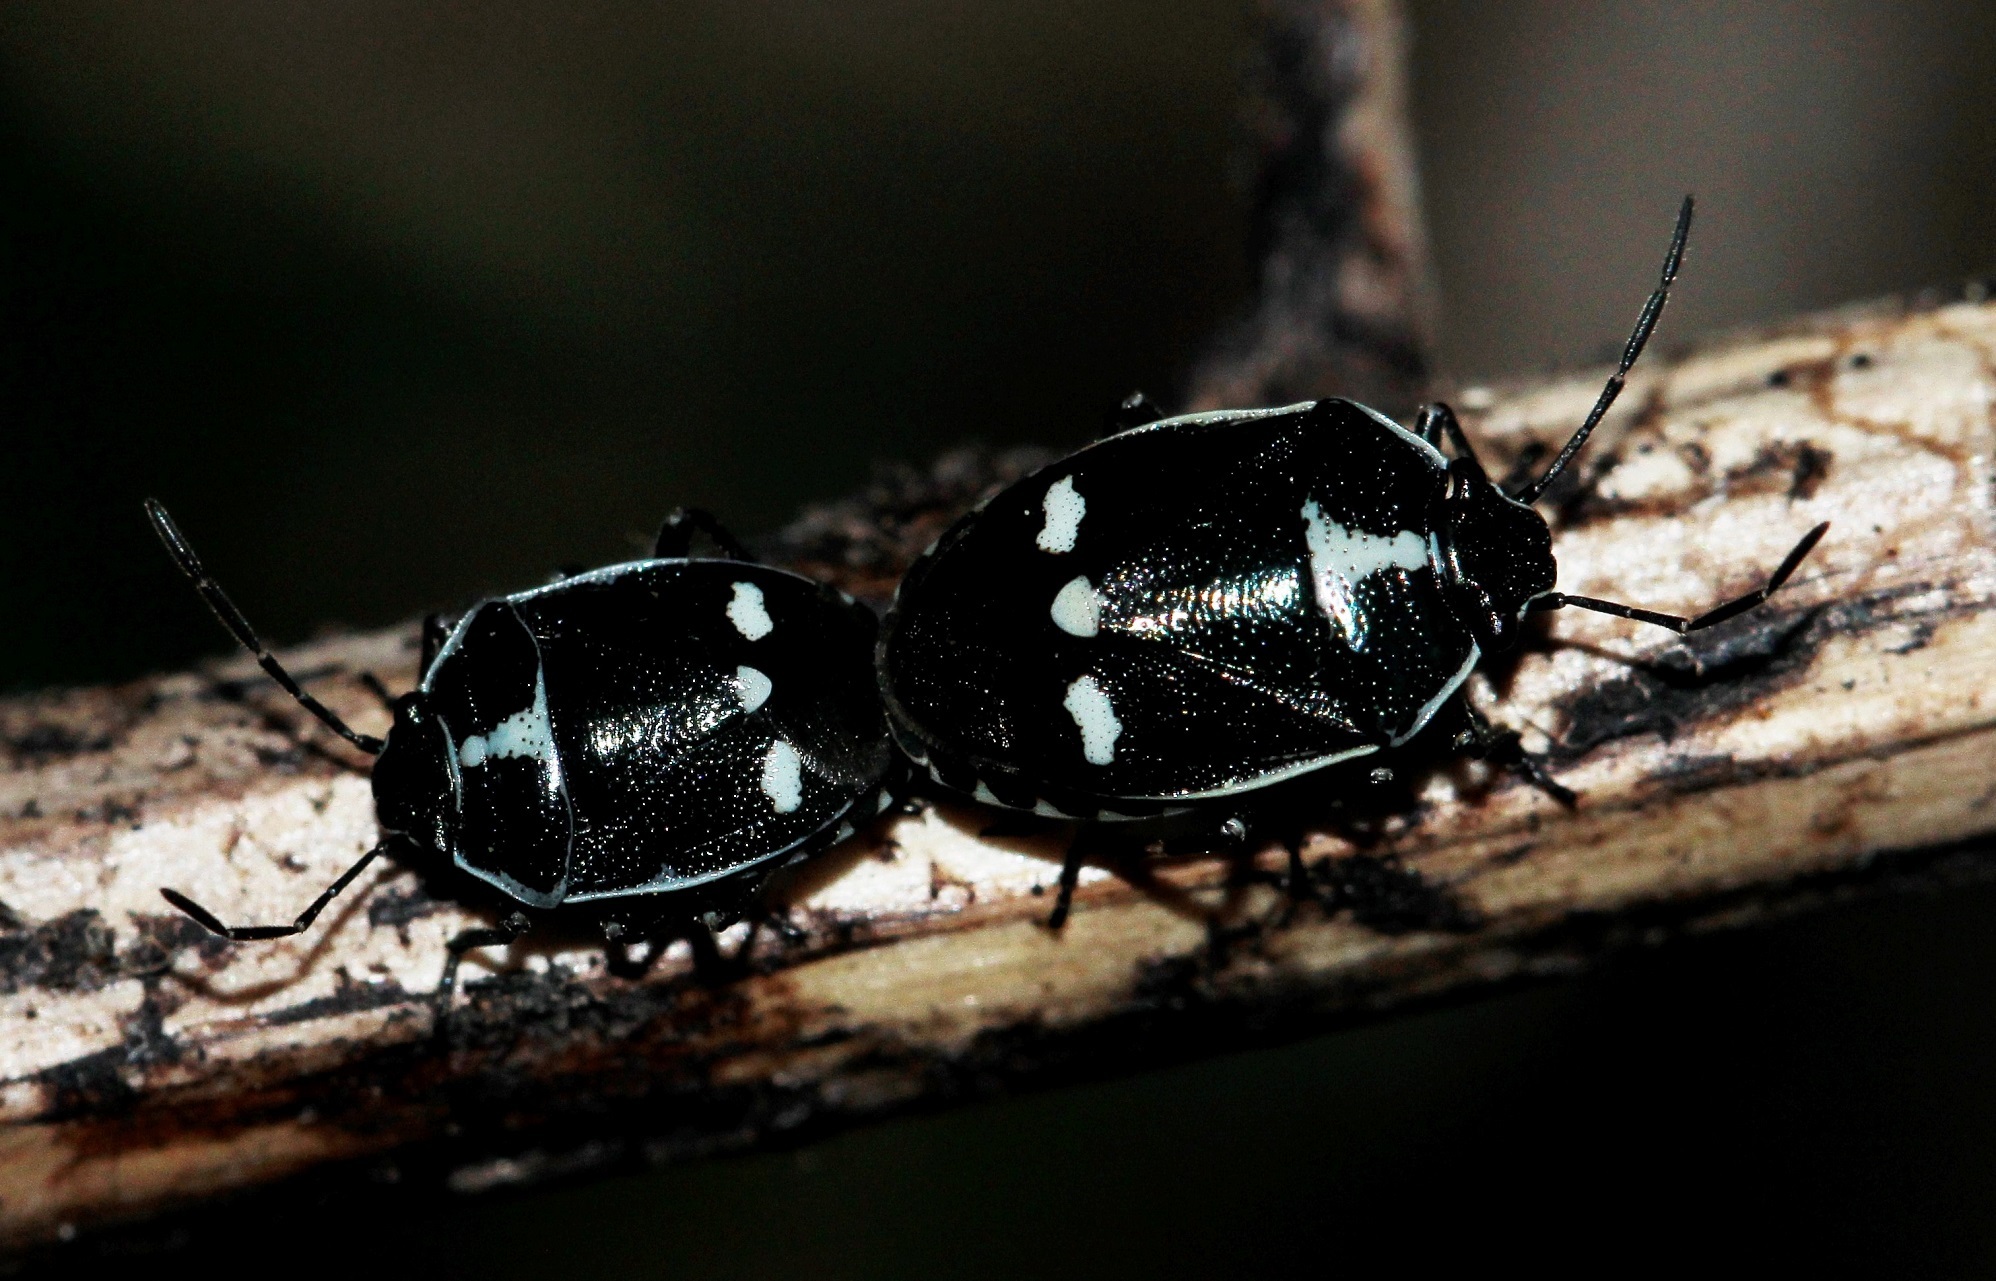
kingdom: Animalia
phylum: Arthropoda
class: Insecta
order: Hemiptera
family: Pentatomidae
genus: Eurydema
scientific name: Eurydema oleracea
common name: Cabbage bug
